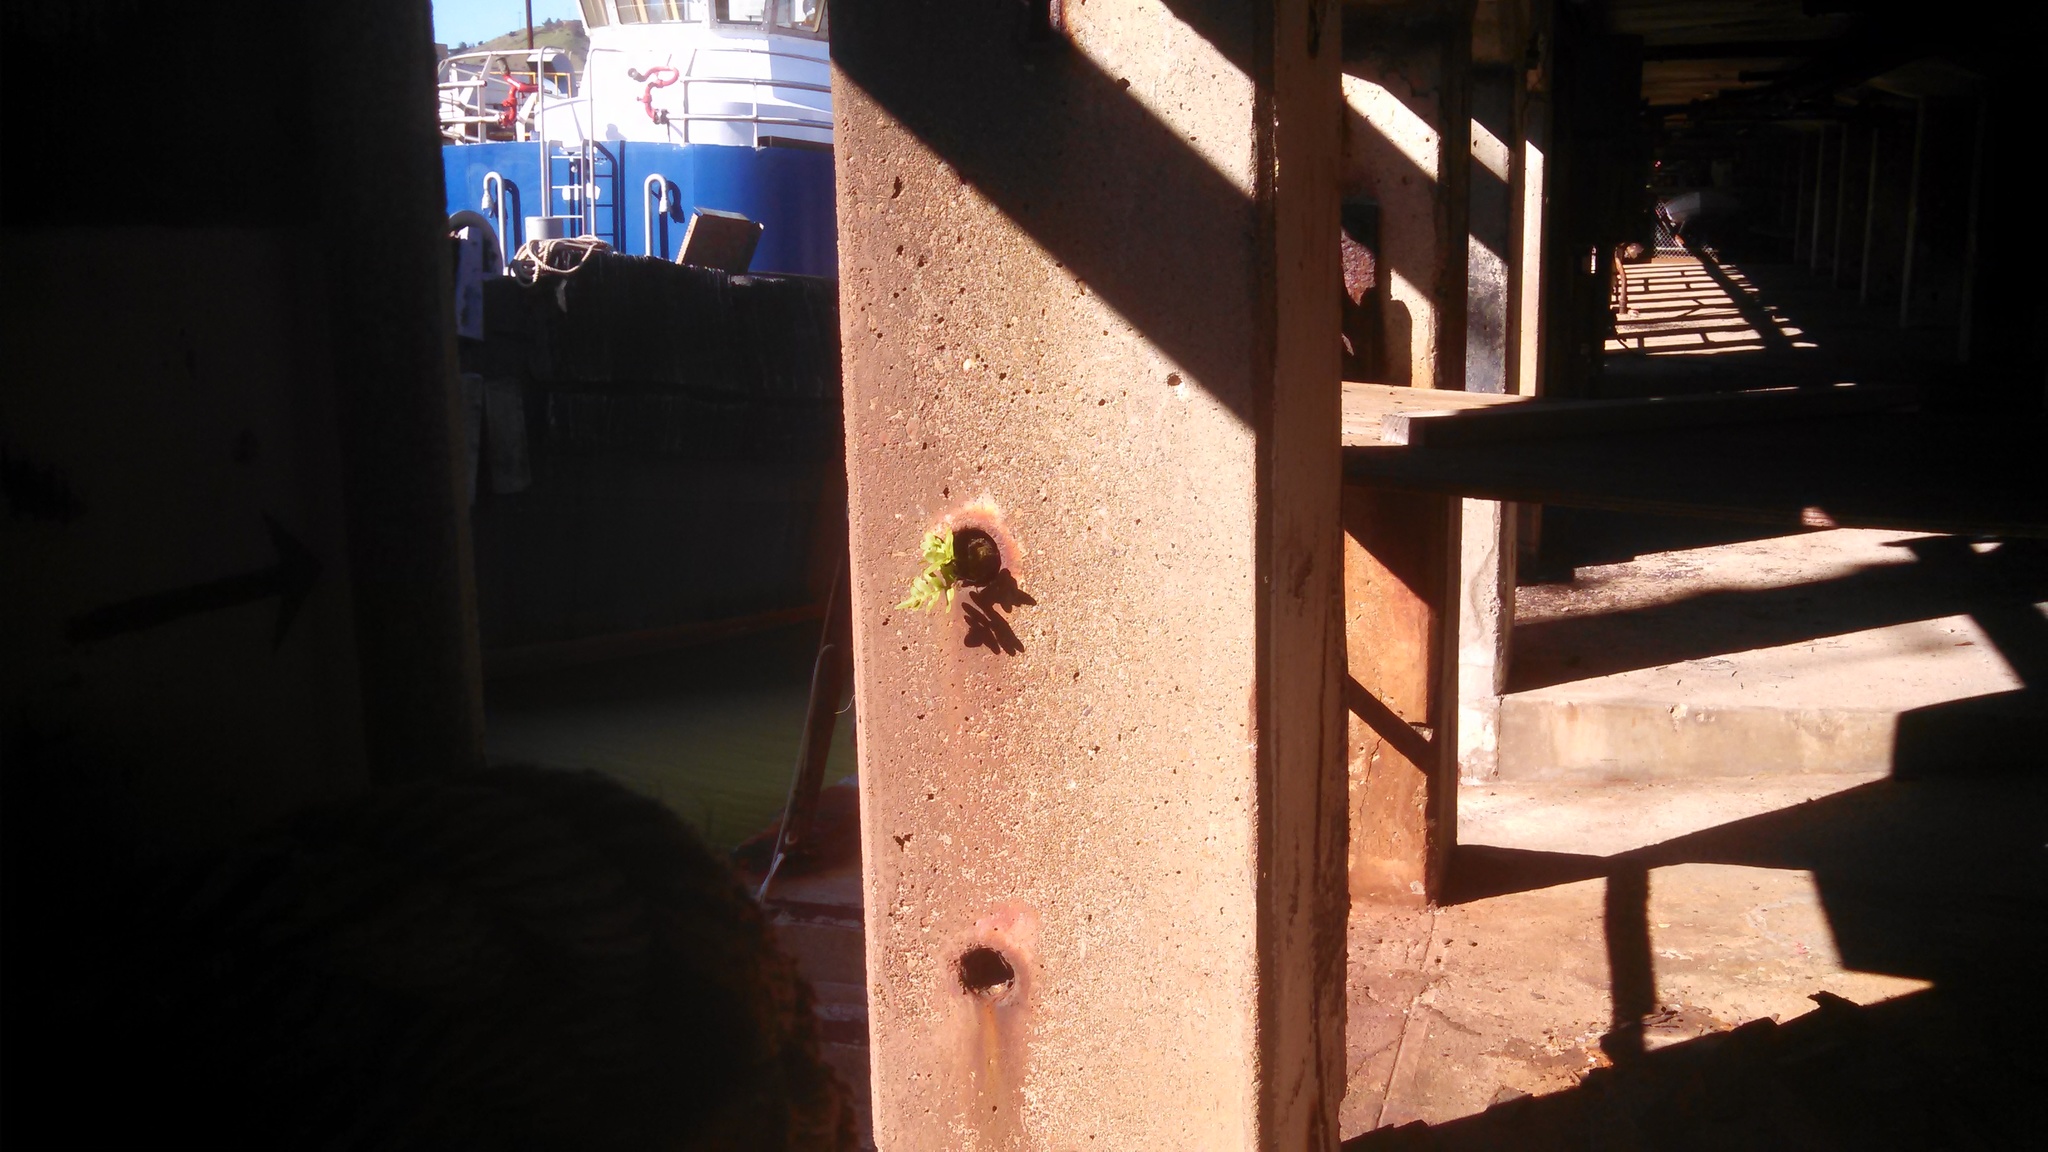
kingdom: Plantae
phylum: Tracheophyta
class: Polypodiopsida
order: Polypodiales
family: Polypodiaceae
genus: Polypodium
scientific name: Polypodium calirhiza
